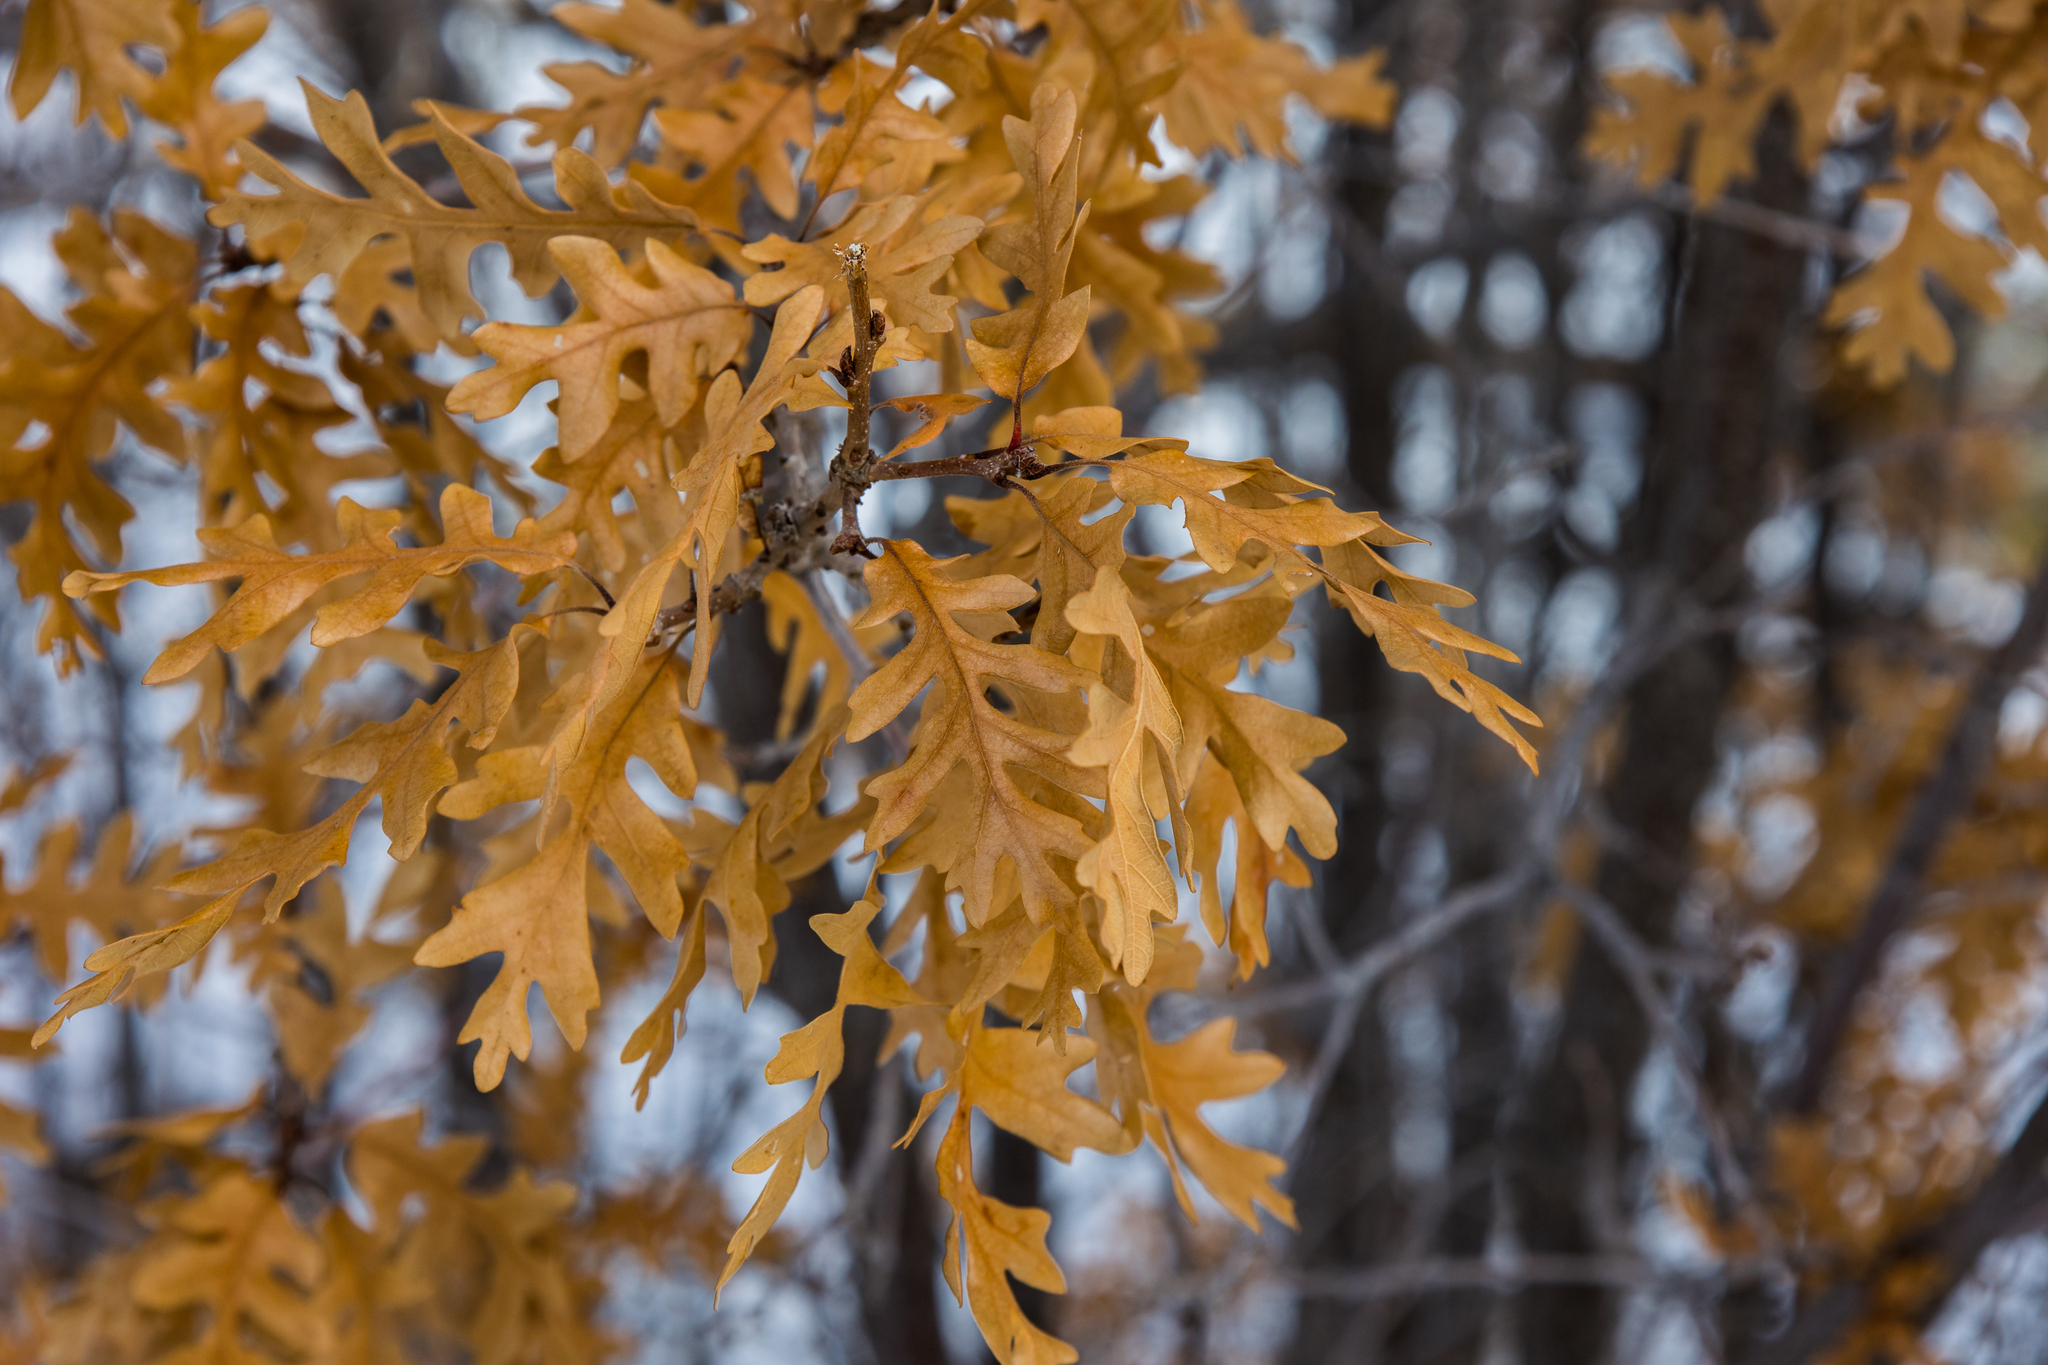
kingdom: Plantae
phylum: Tracheophyta
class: Magnoliopsida
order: Fagales
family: Fagaceae
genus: Quercus
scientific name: Quercus gambelii
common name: Gambel oak
